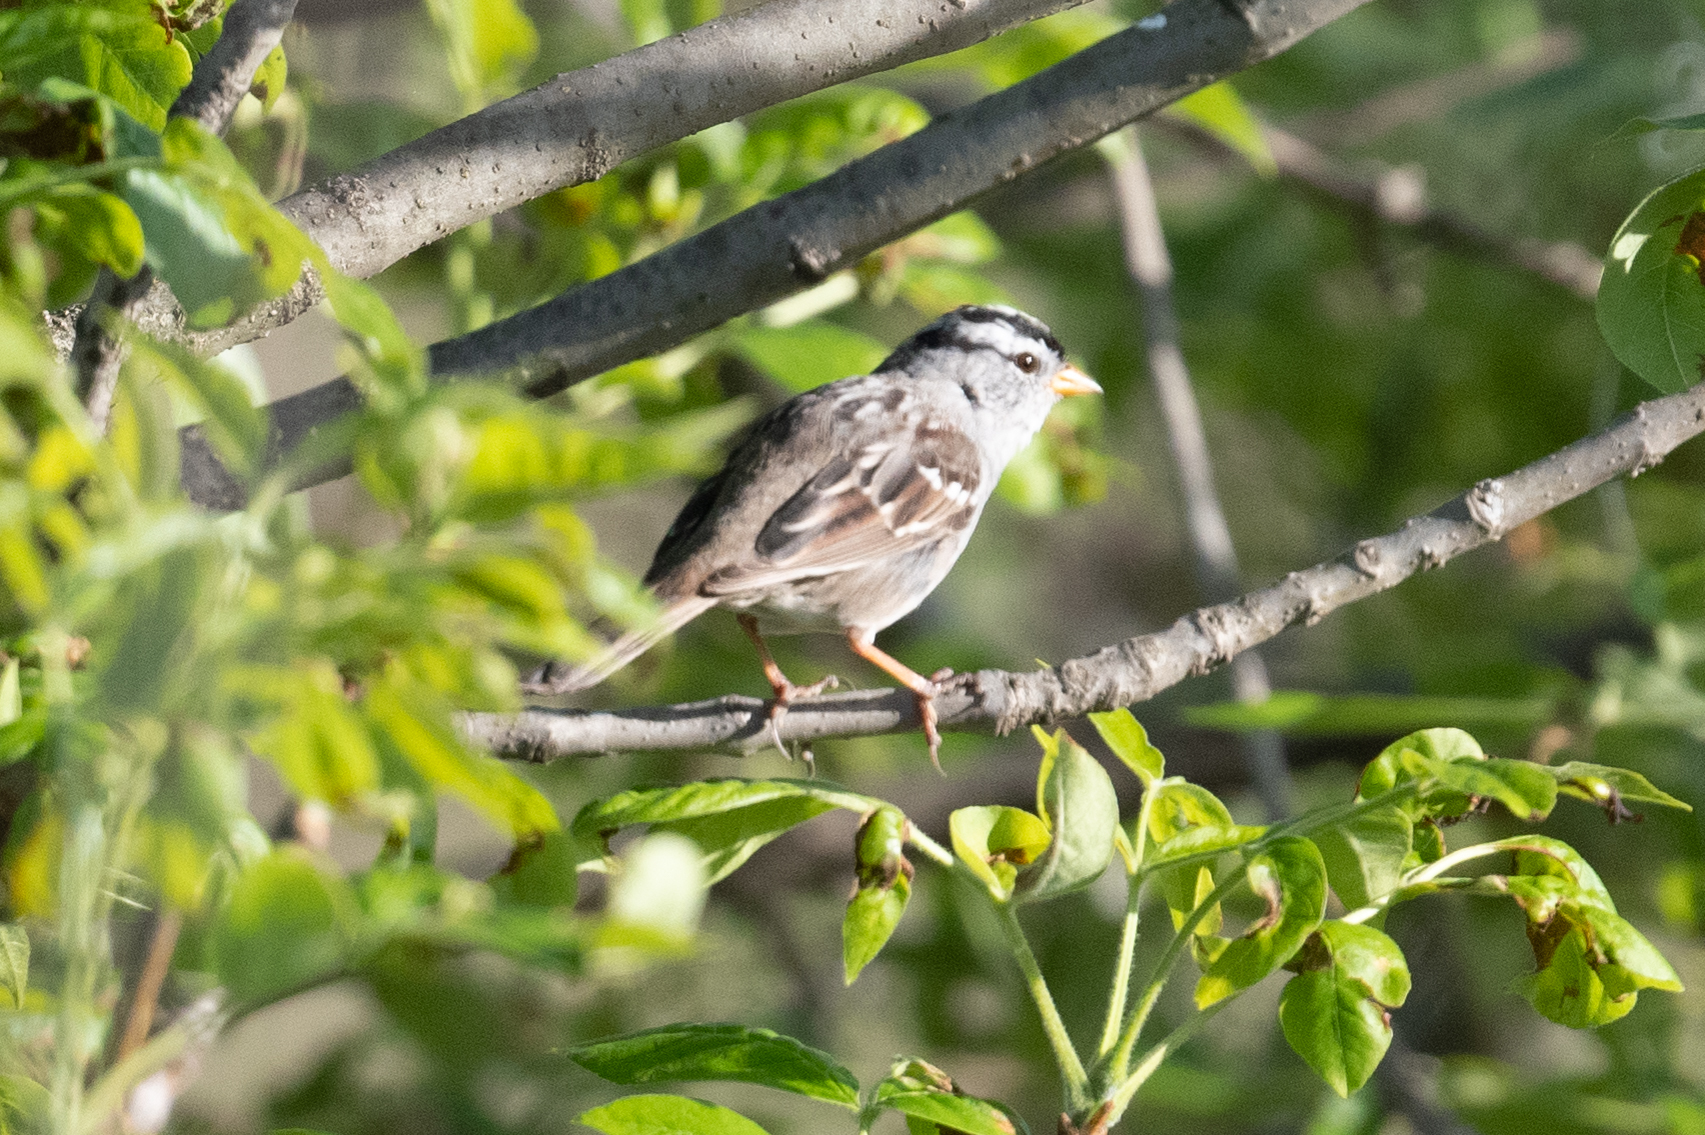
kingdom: Animalia
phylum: Chordata
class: Aves
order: Passeriformes
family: Passerellidae
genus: Zonotrichia
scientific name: Zonotrichia leucophrys
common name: White-crowned sparrow
